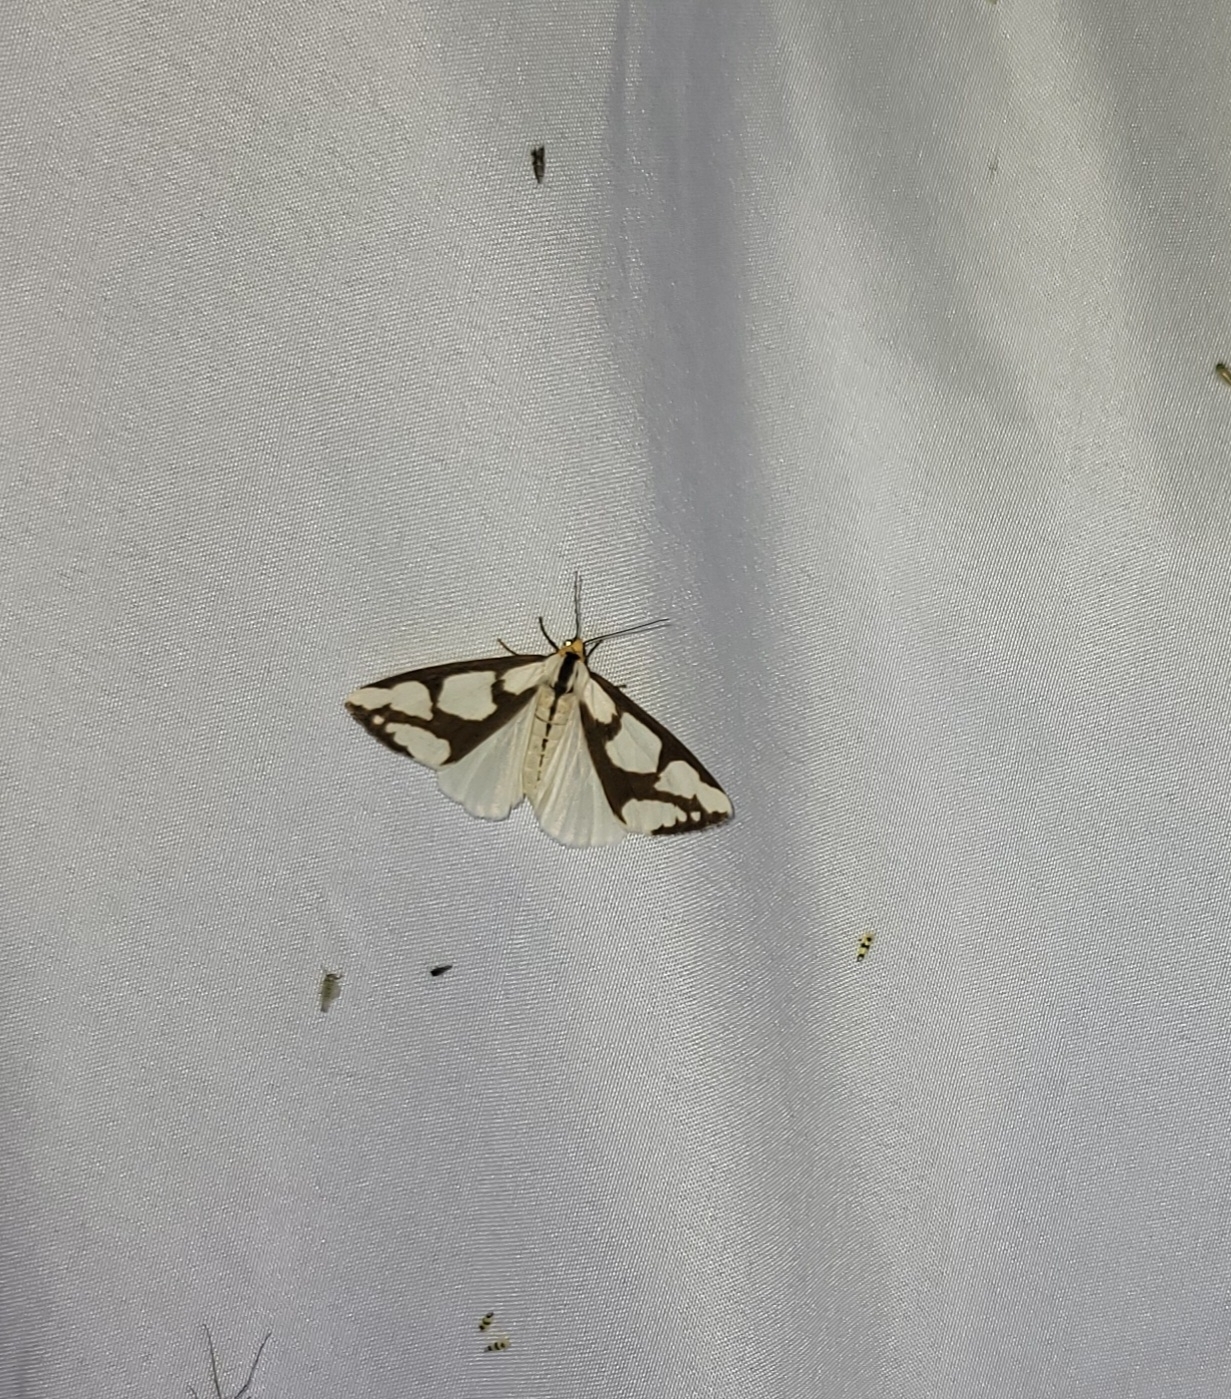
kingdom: Animalia
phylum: Arthropoda
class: Insecta
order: Lepidoptera
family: Erebidae
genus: Haploa
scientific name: Haploa lecontei
